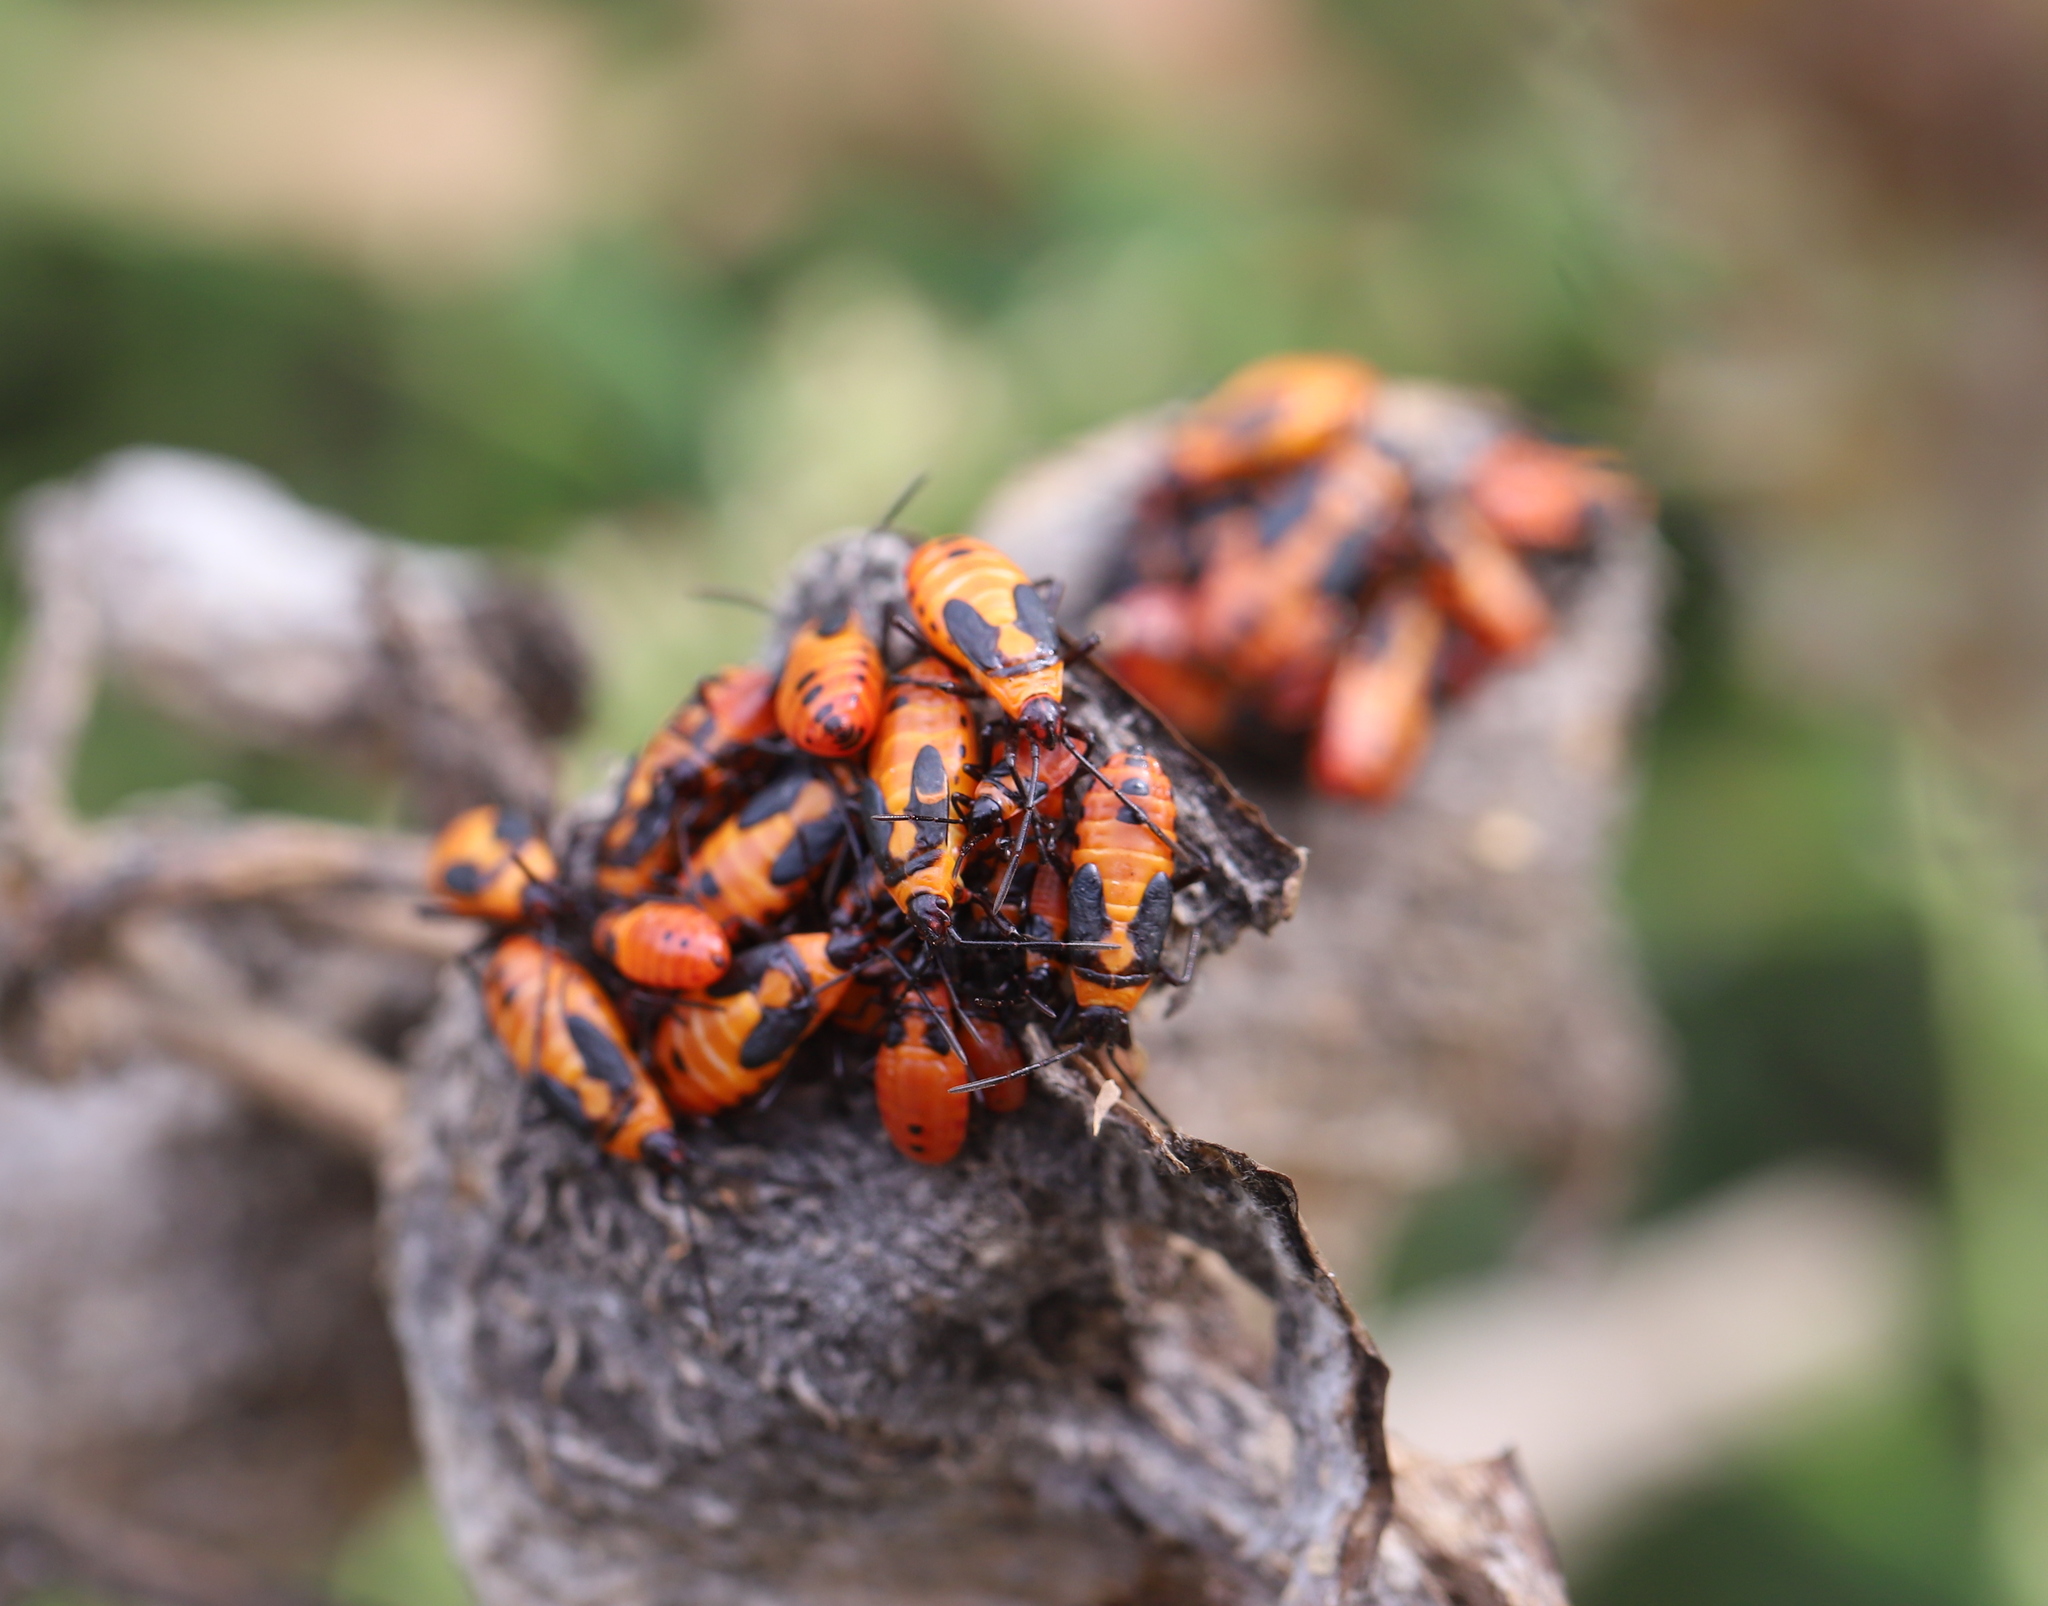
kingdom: Animalia
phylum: Arthropoda
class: Insecta
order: Hemiptera
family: Lygaeidae
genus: Oncopeltus
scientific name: Oncopeltus fasciatus
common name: Large milkweed bug
